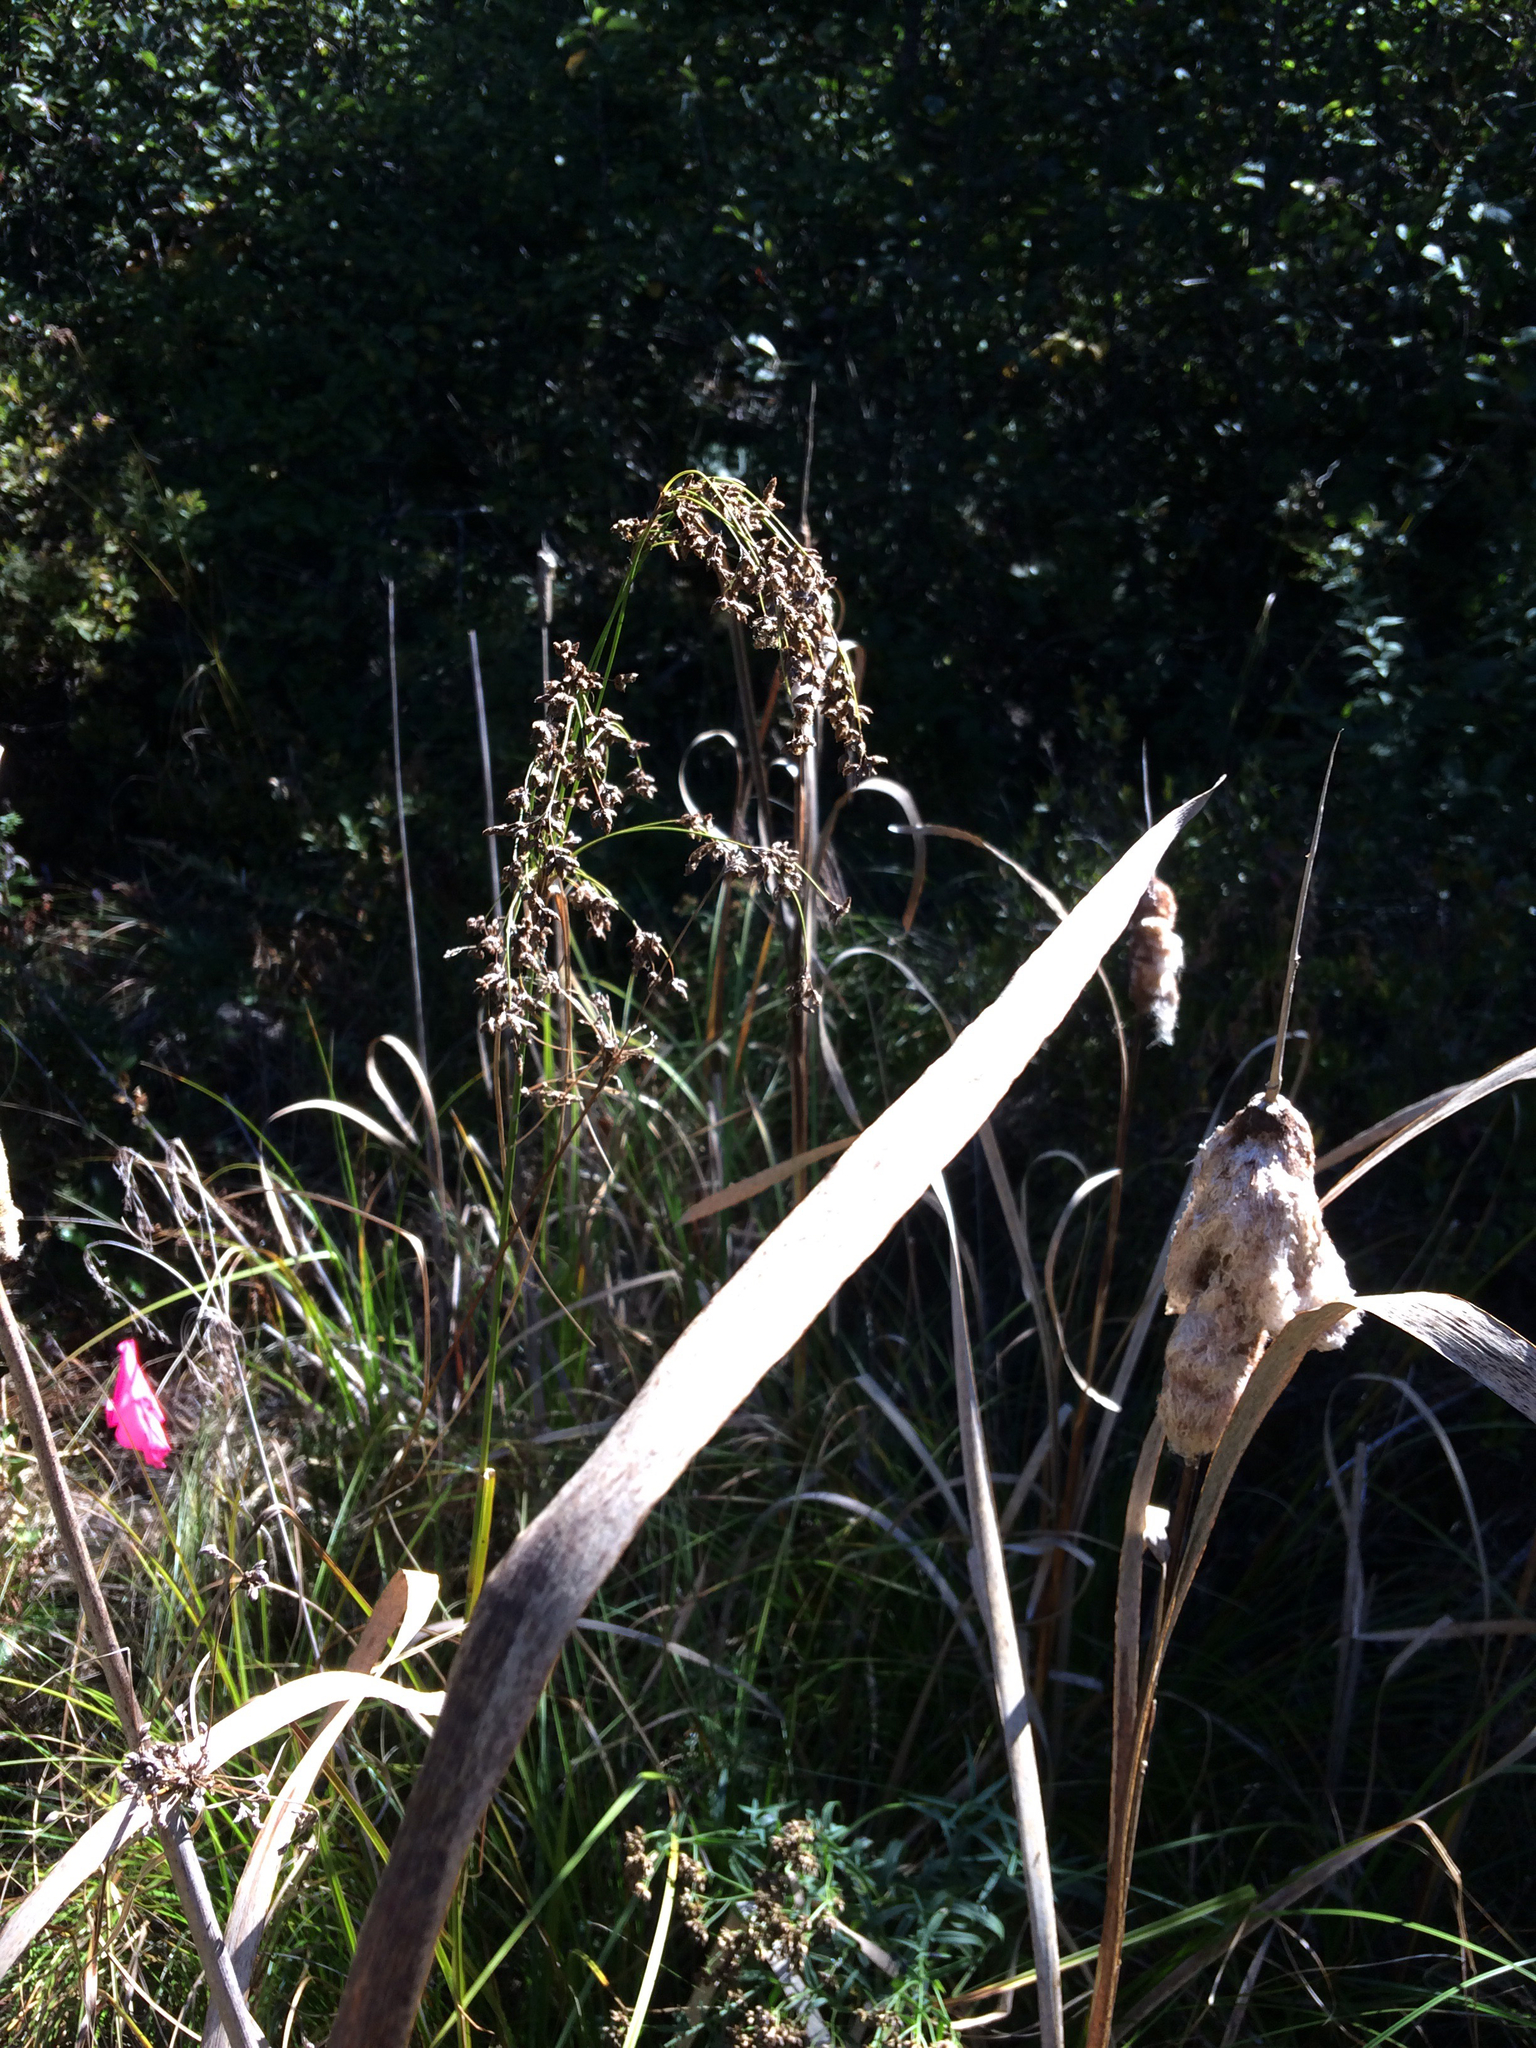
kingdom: Plantae
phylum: Tracheophyta
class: Liliopsida
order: Poales
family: Cyperaceae
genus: Scirpus
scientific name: Scirpus cyperinus
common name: Black-sheathed bulrush
